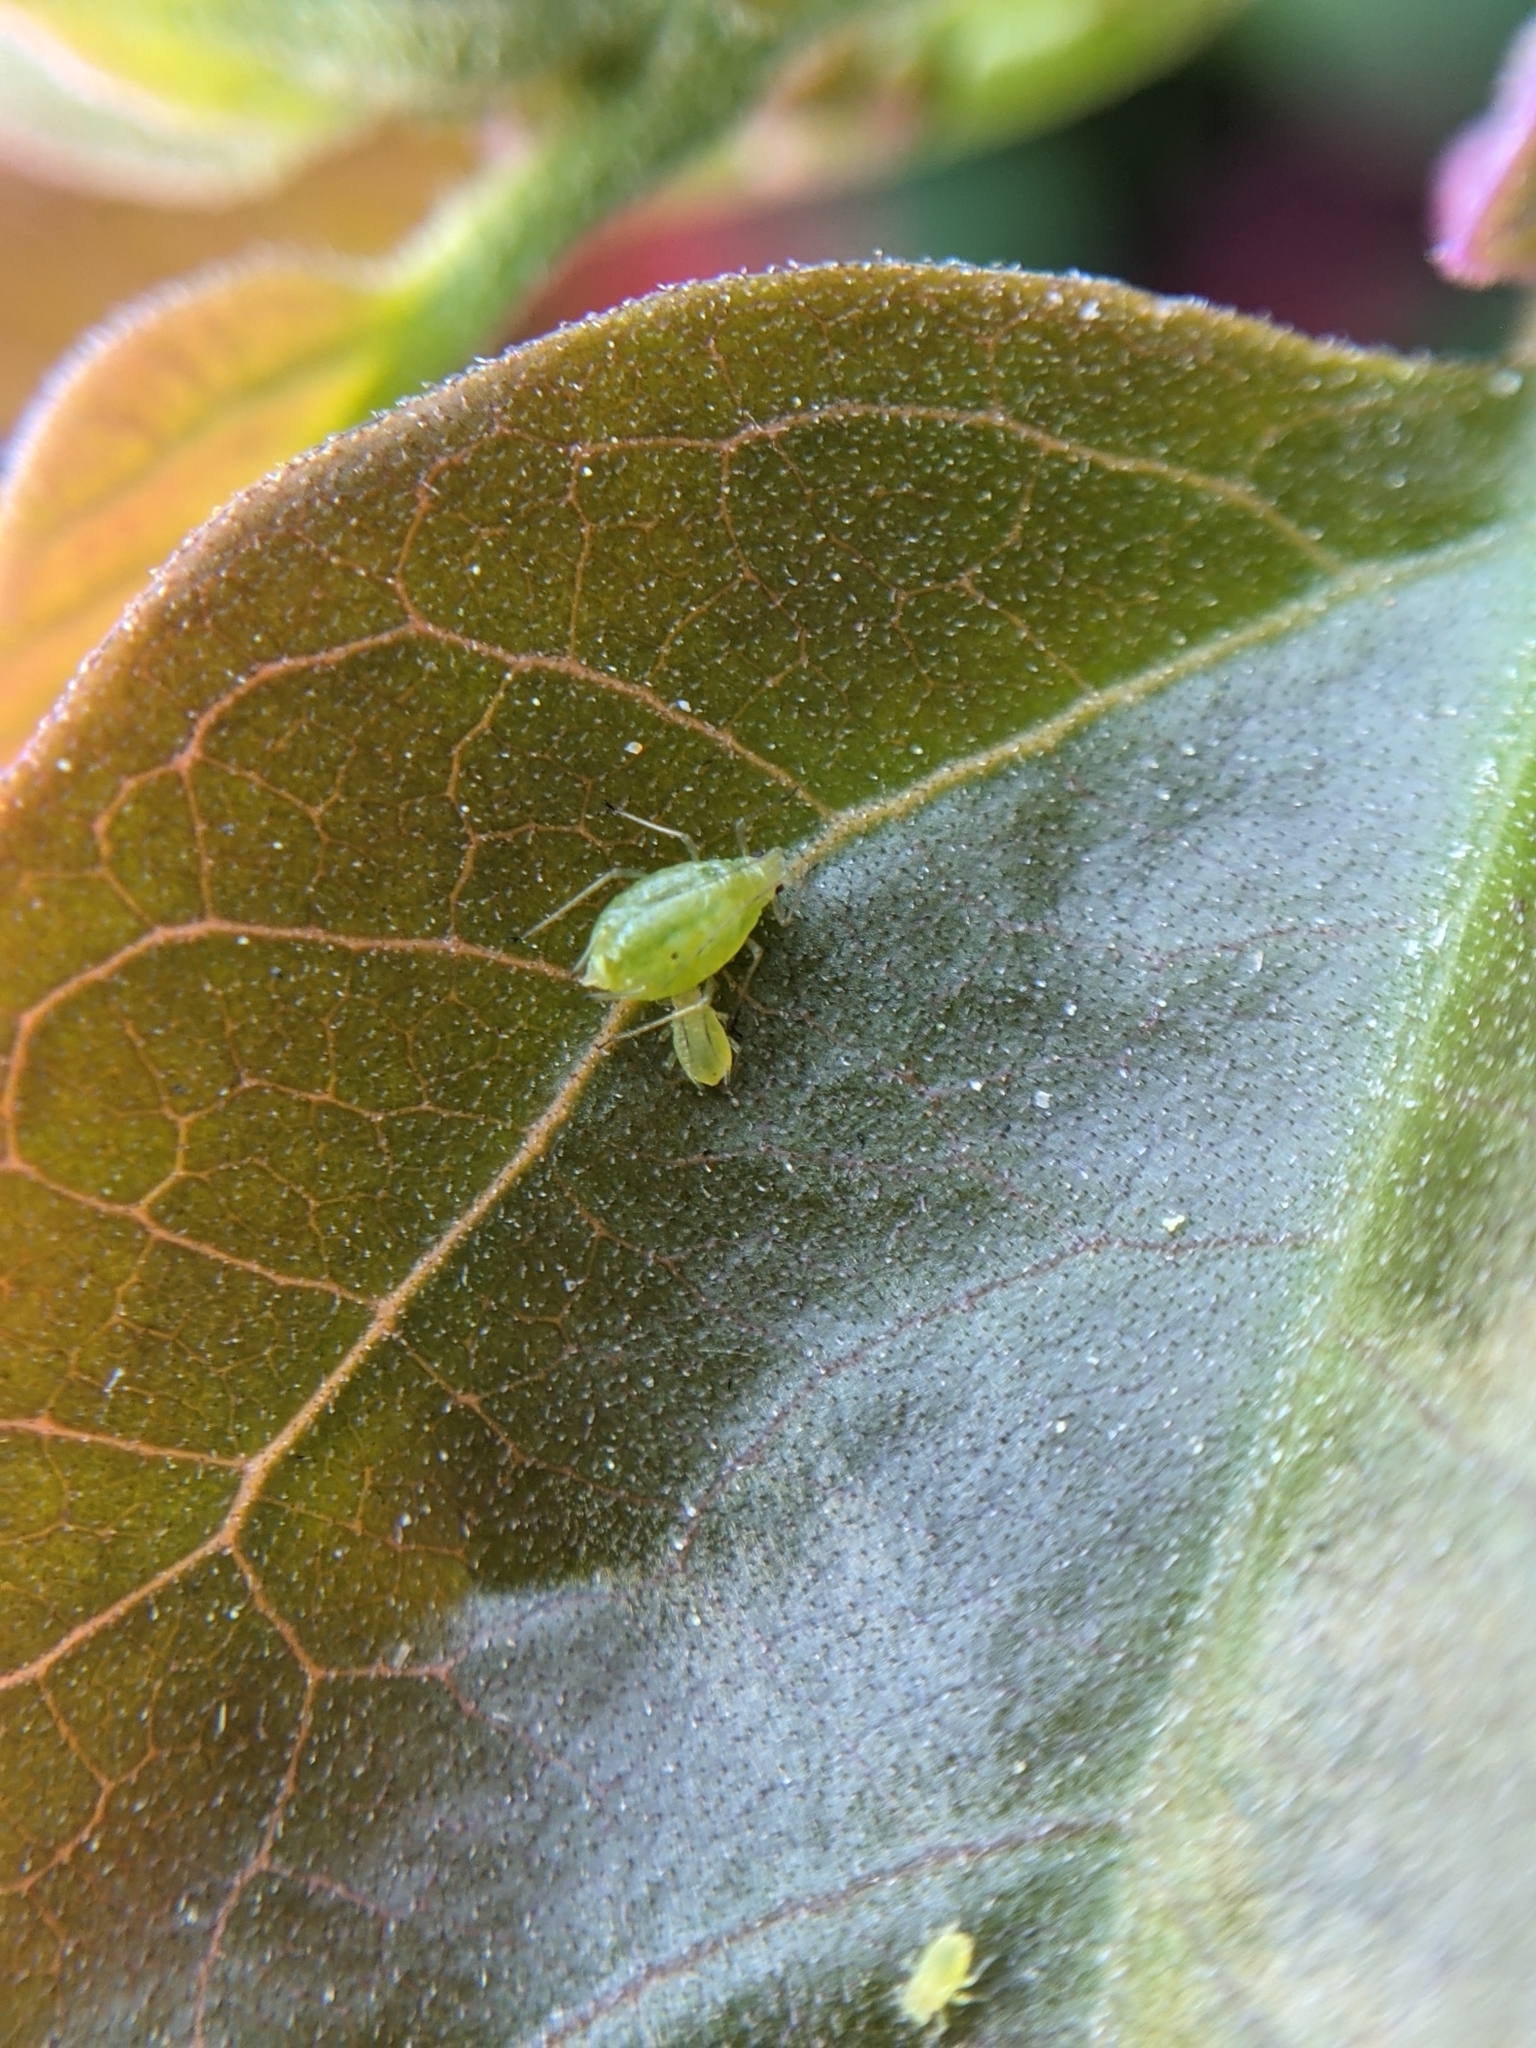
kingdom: Animalia
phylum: Arthropoda
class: Insecta
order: Hemiptera
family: Aphididae
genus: Myzus
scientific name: Myzus persicae
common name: Green peach aphid
